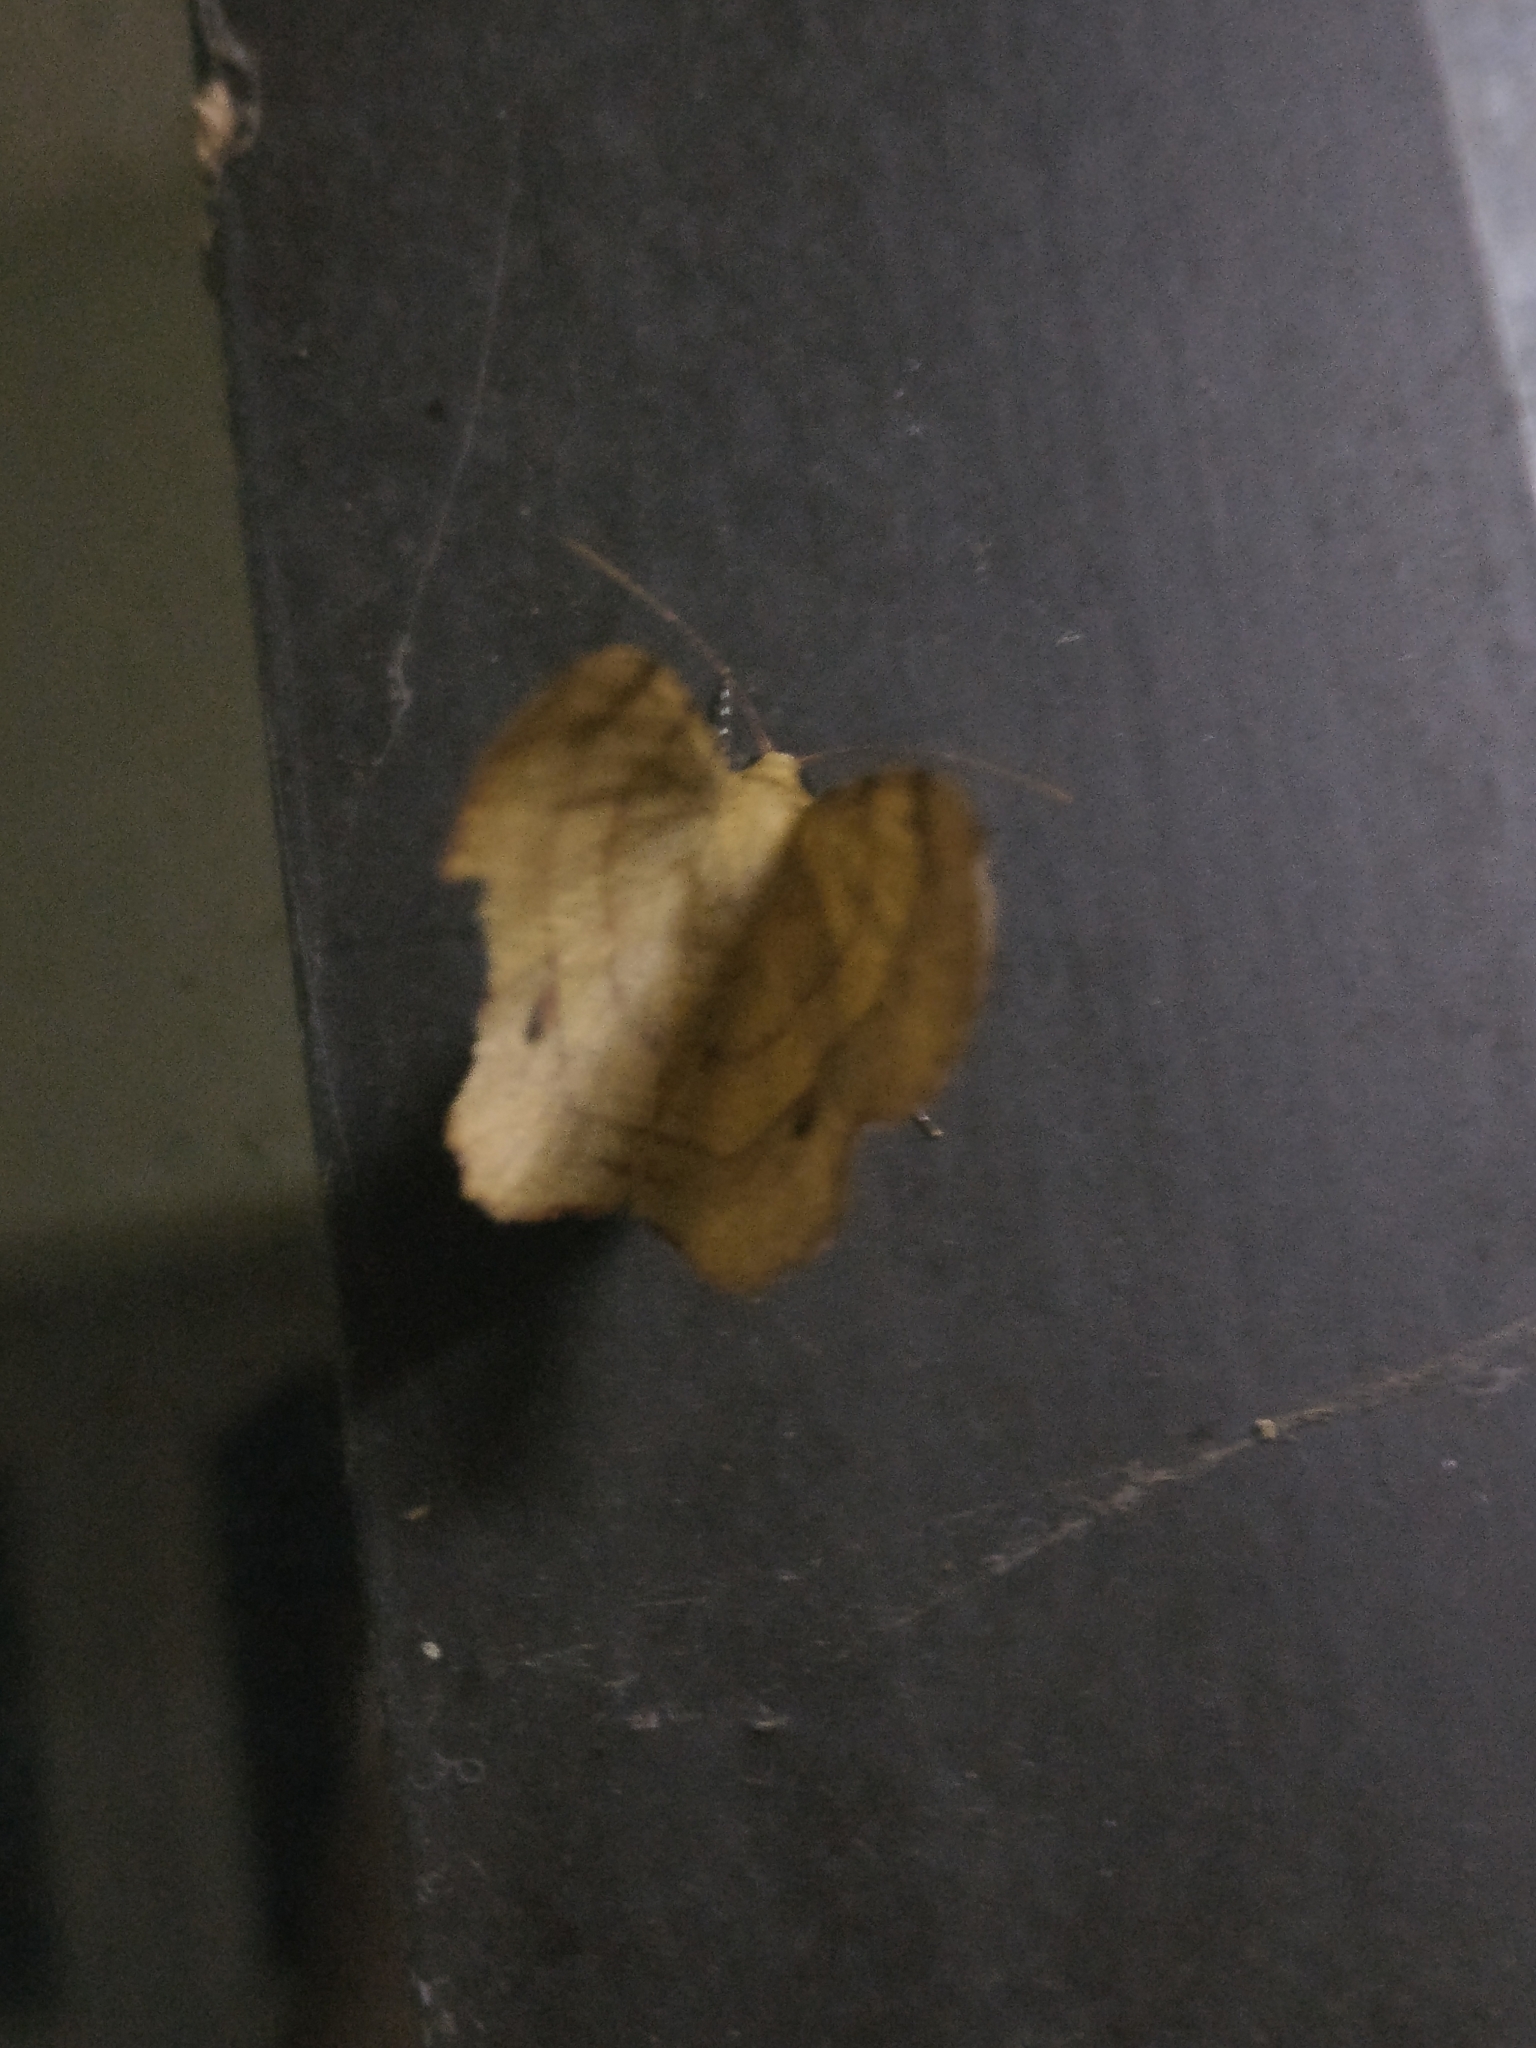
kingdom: Animalia
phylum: Arthropoda
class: Insecta
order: Lepidoptera
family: Geometridae
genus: Hyperythra
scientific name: Hyperythra lutea
